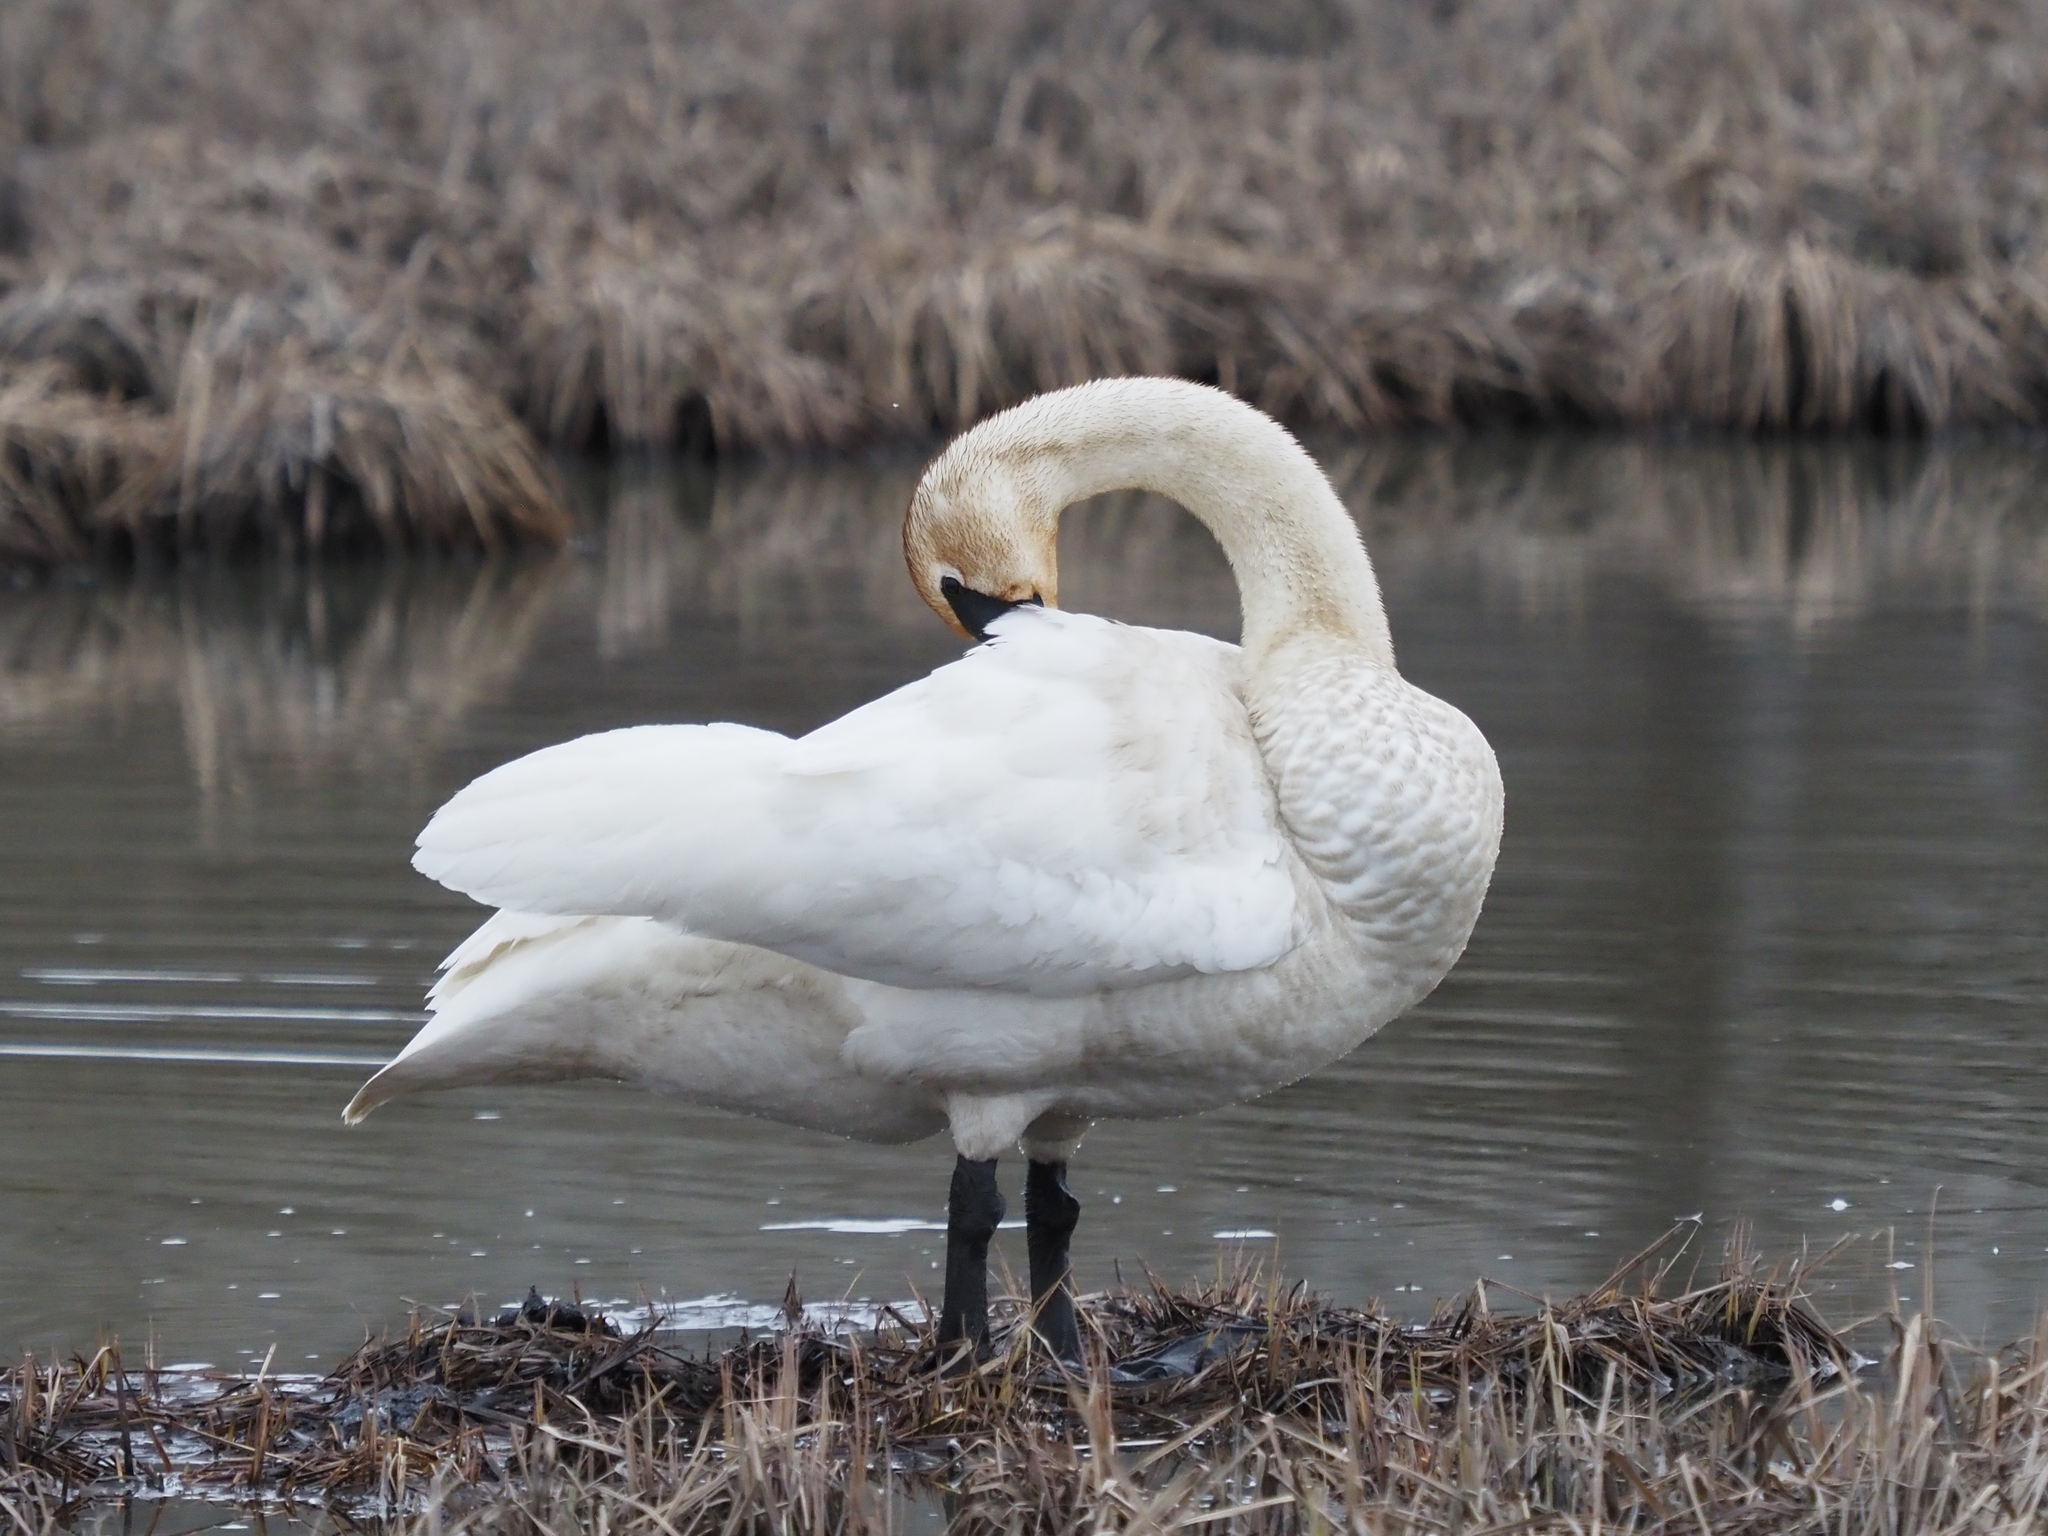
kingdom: Animalia
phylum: Chordata
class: Aves
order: Anseriformes
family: Anatidae
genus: Cygnus
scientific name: Cygnus buccinator
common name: Trumpeter swan
